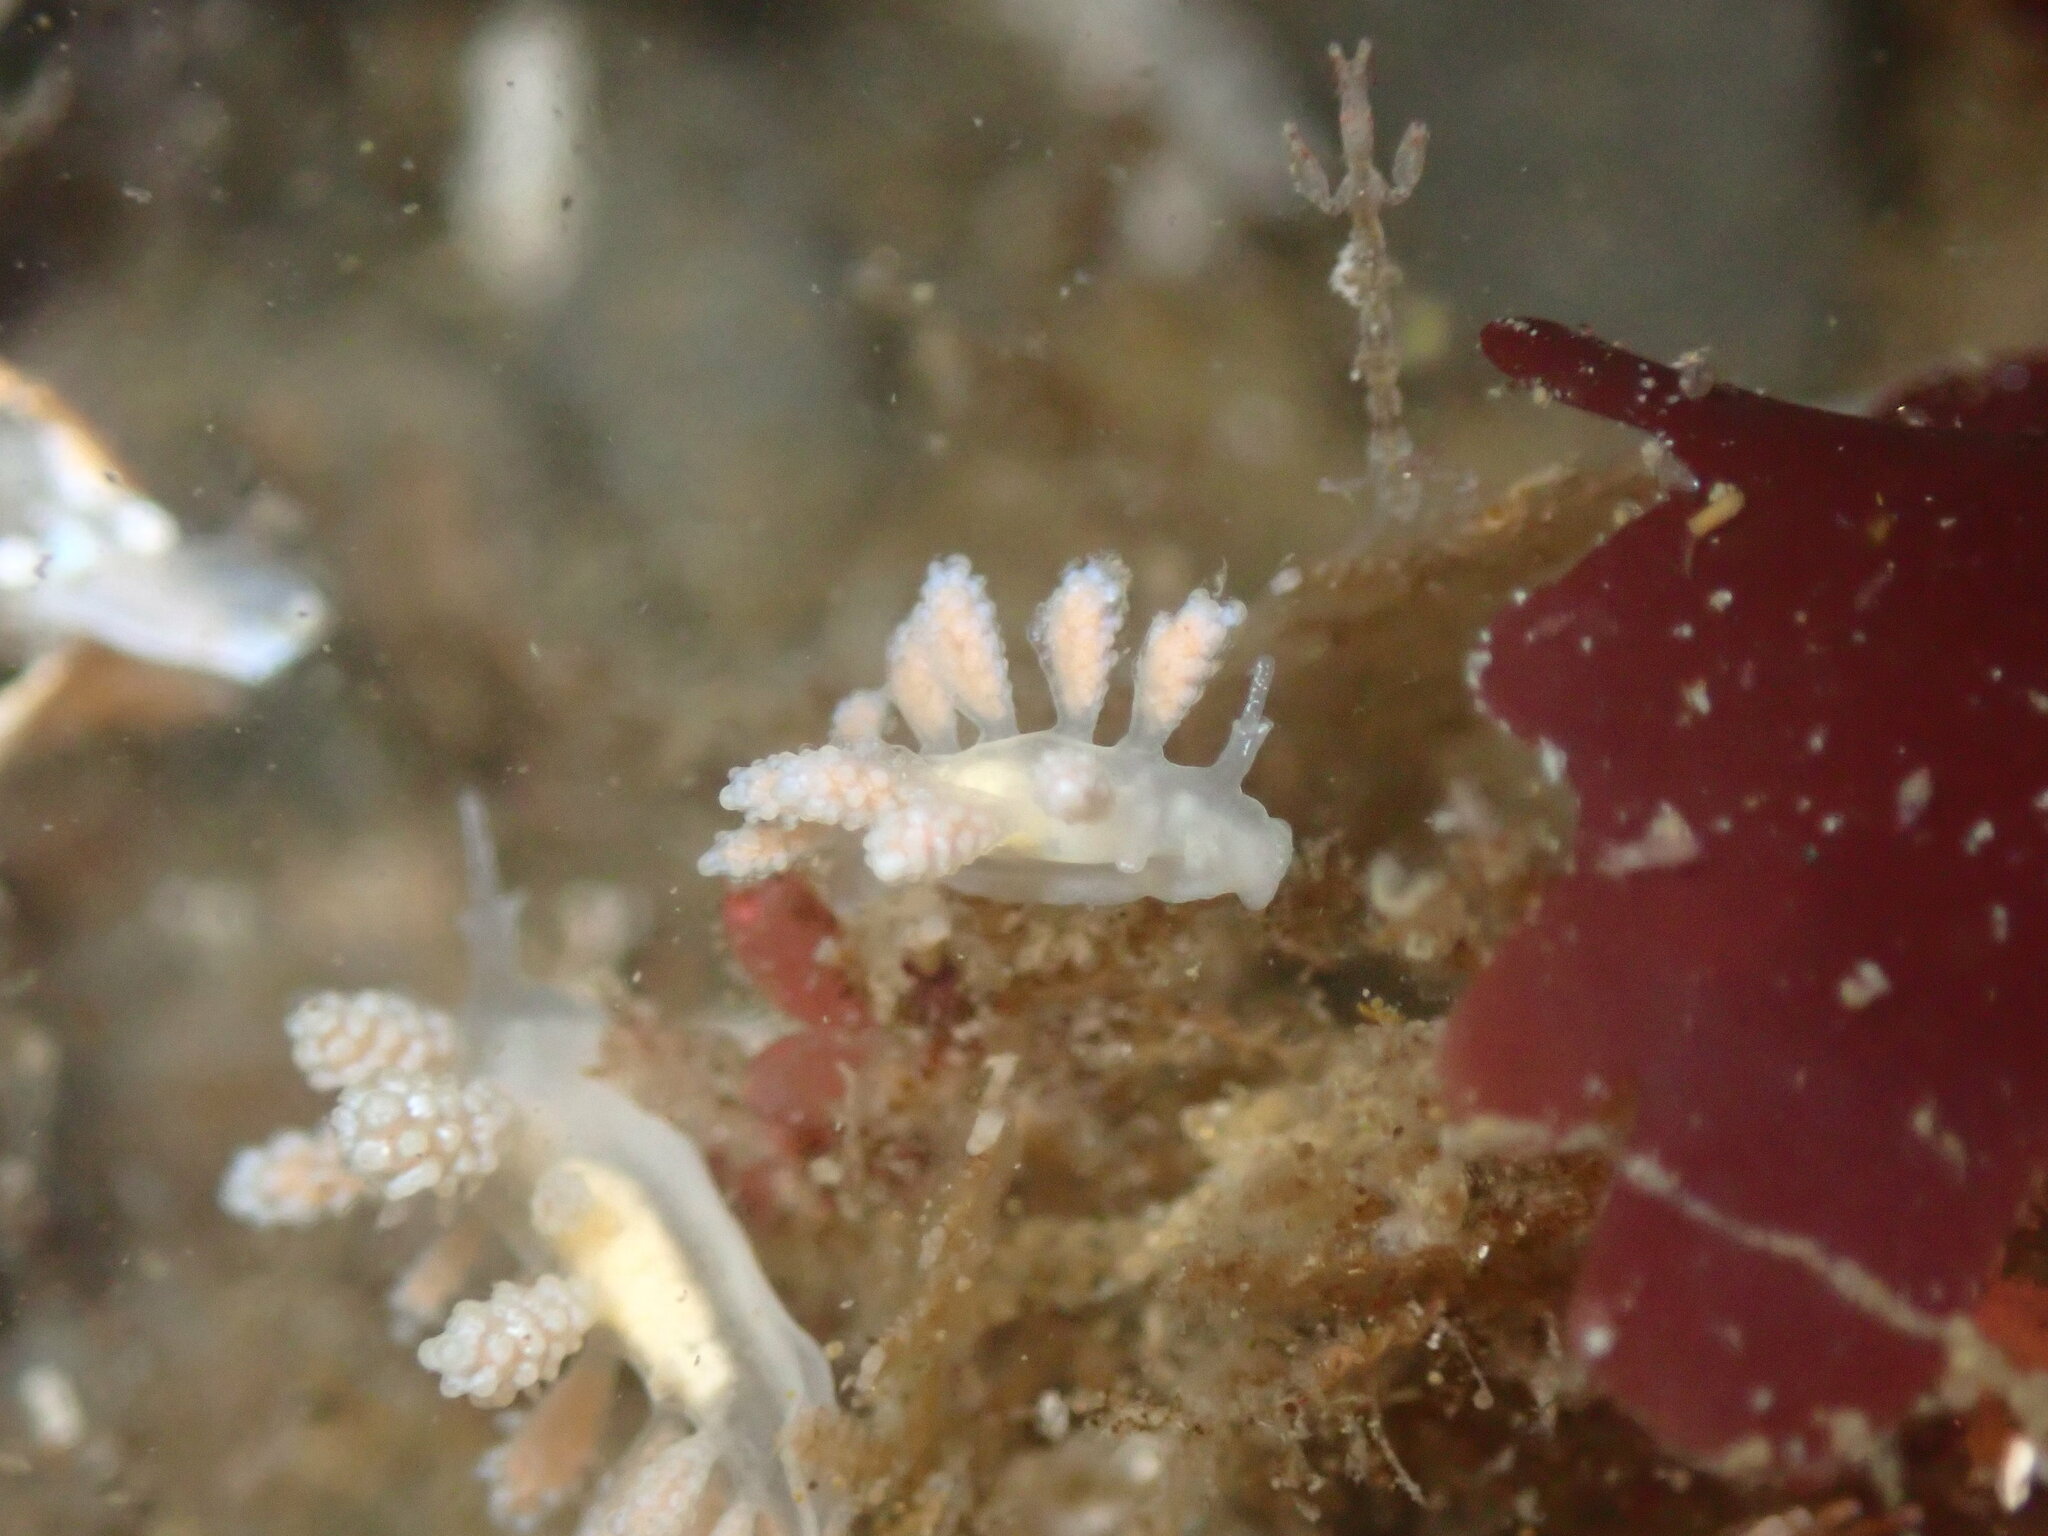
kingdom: Animalia
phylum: Mollusca
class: Gastropoda
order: Nudibranchia
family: Dotidae
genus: Doto
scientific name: Doto amyra
